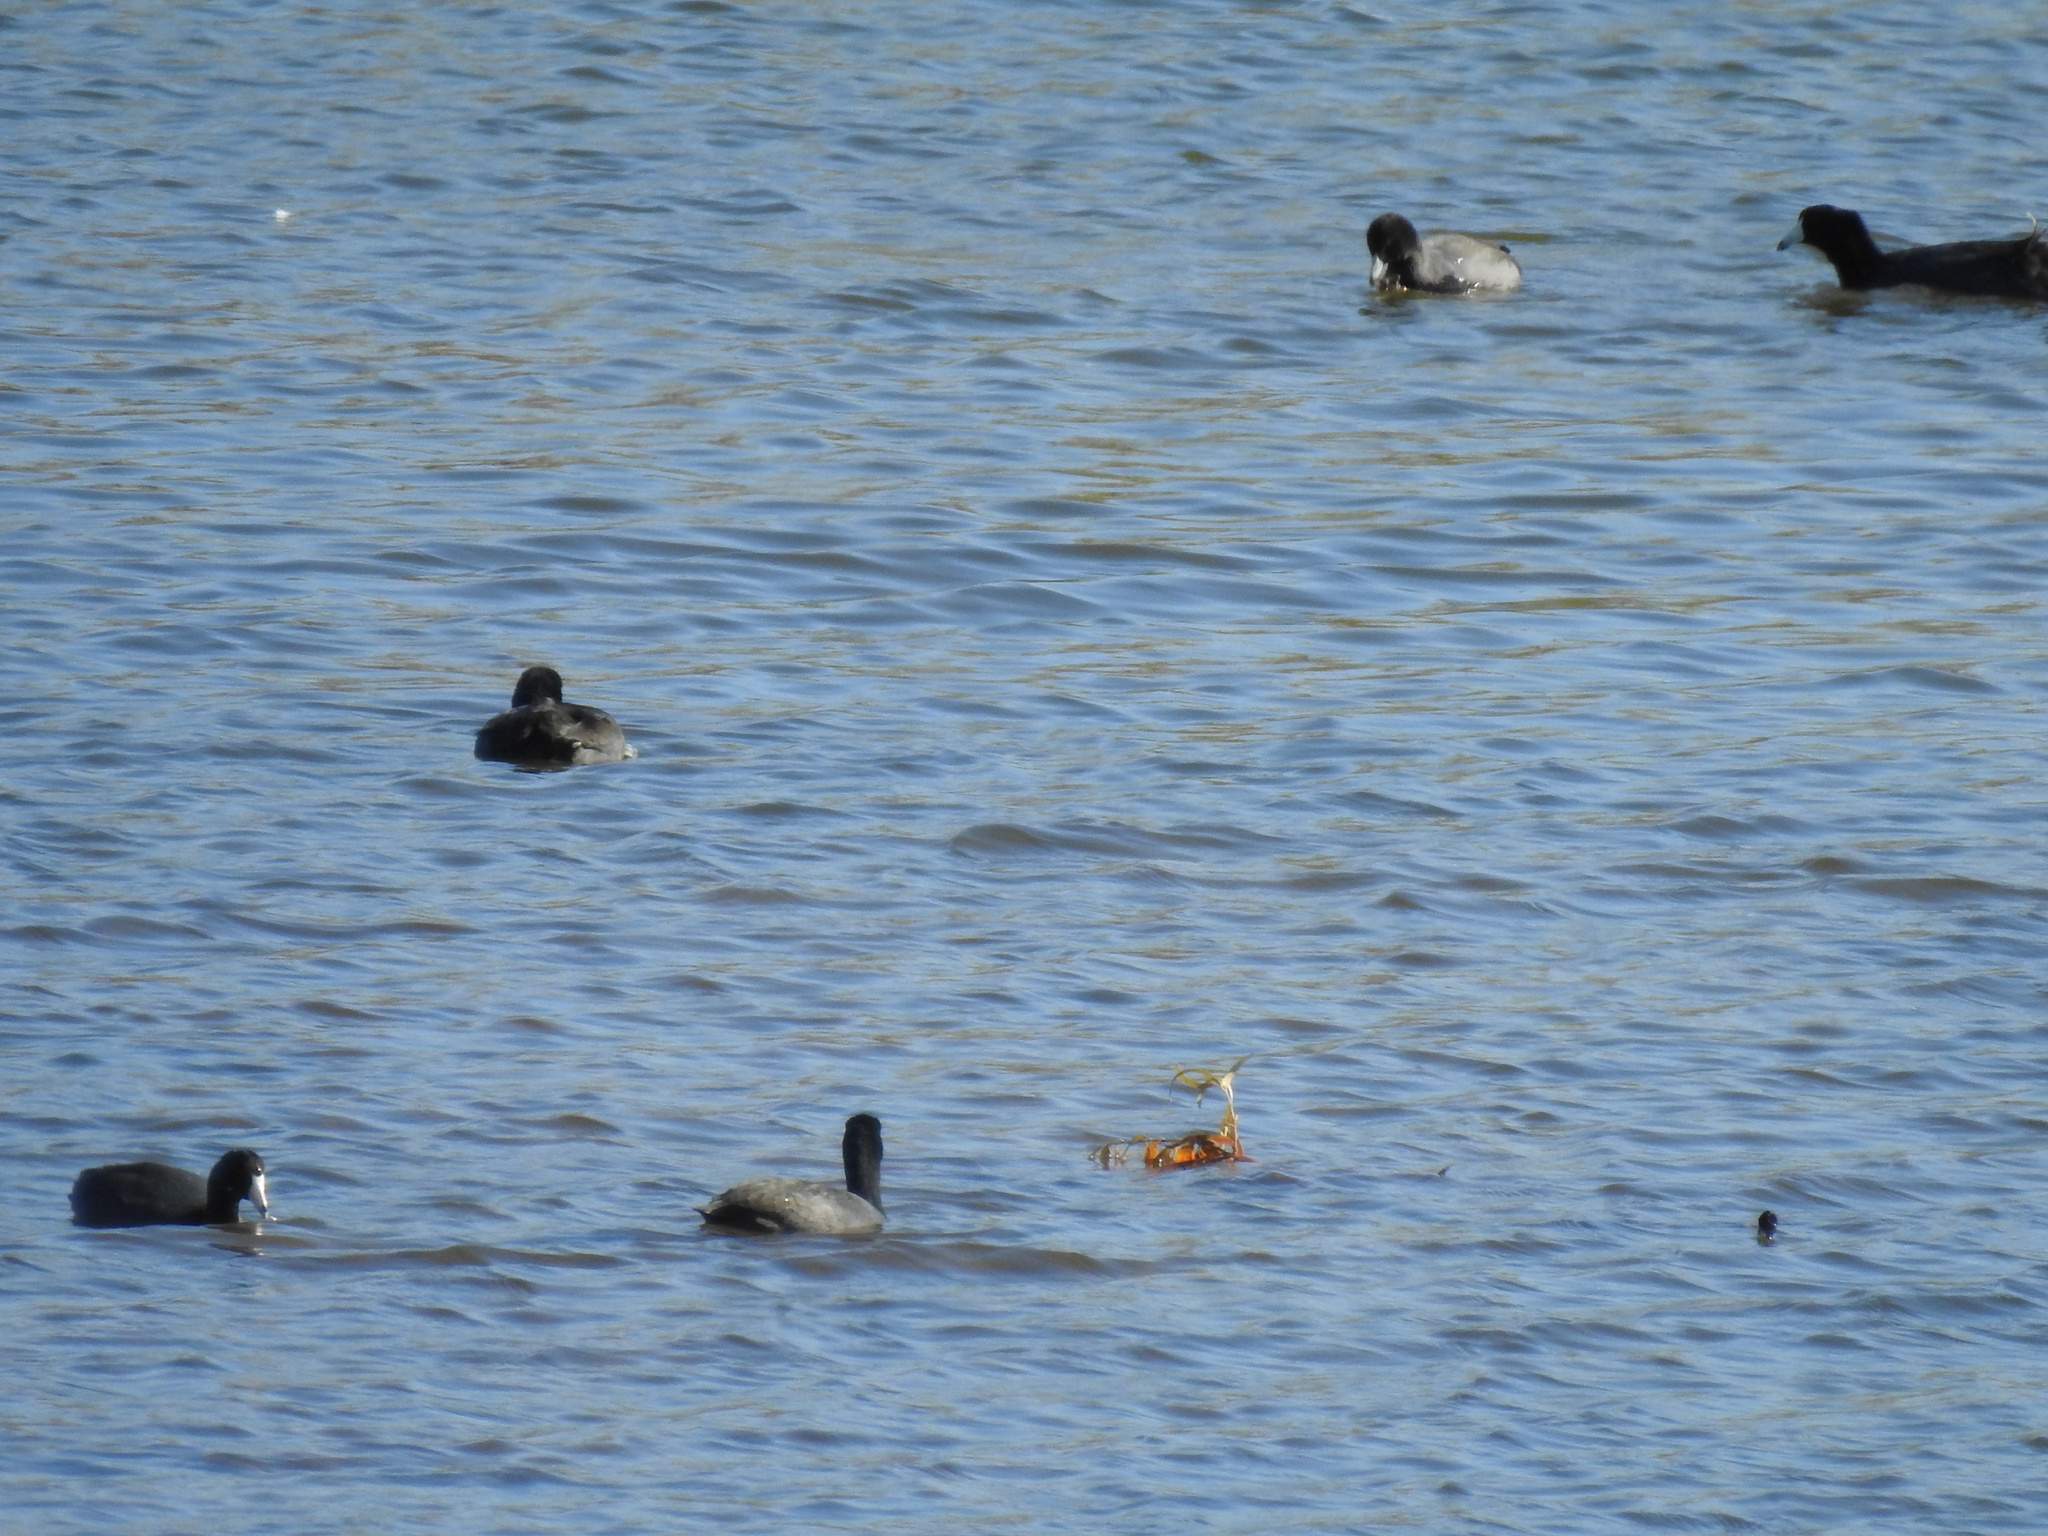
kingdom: Animalia
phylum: Chordata
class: Aves
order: Gruiformes
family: Rallidae
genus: Fulica
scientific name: Fulica americana
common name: American coot
